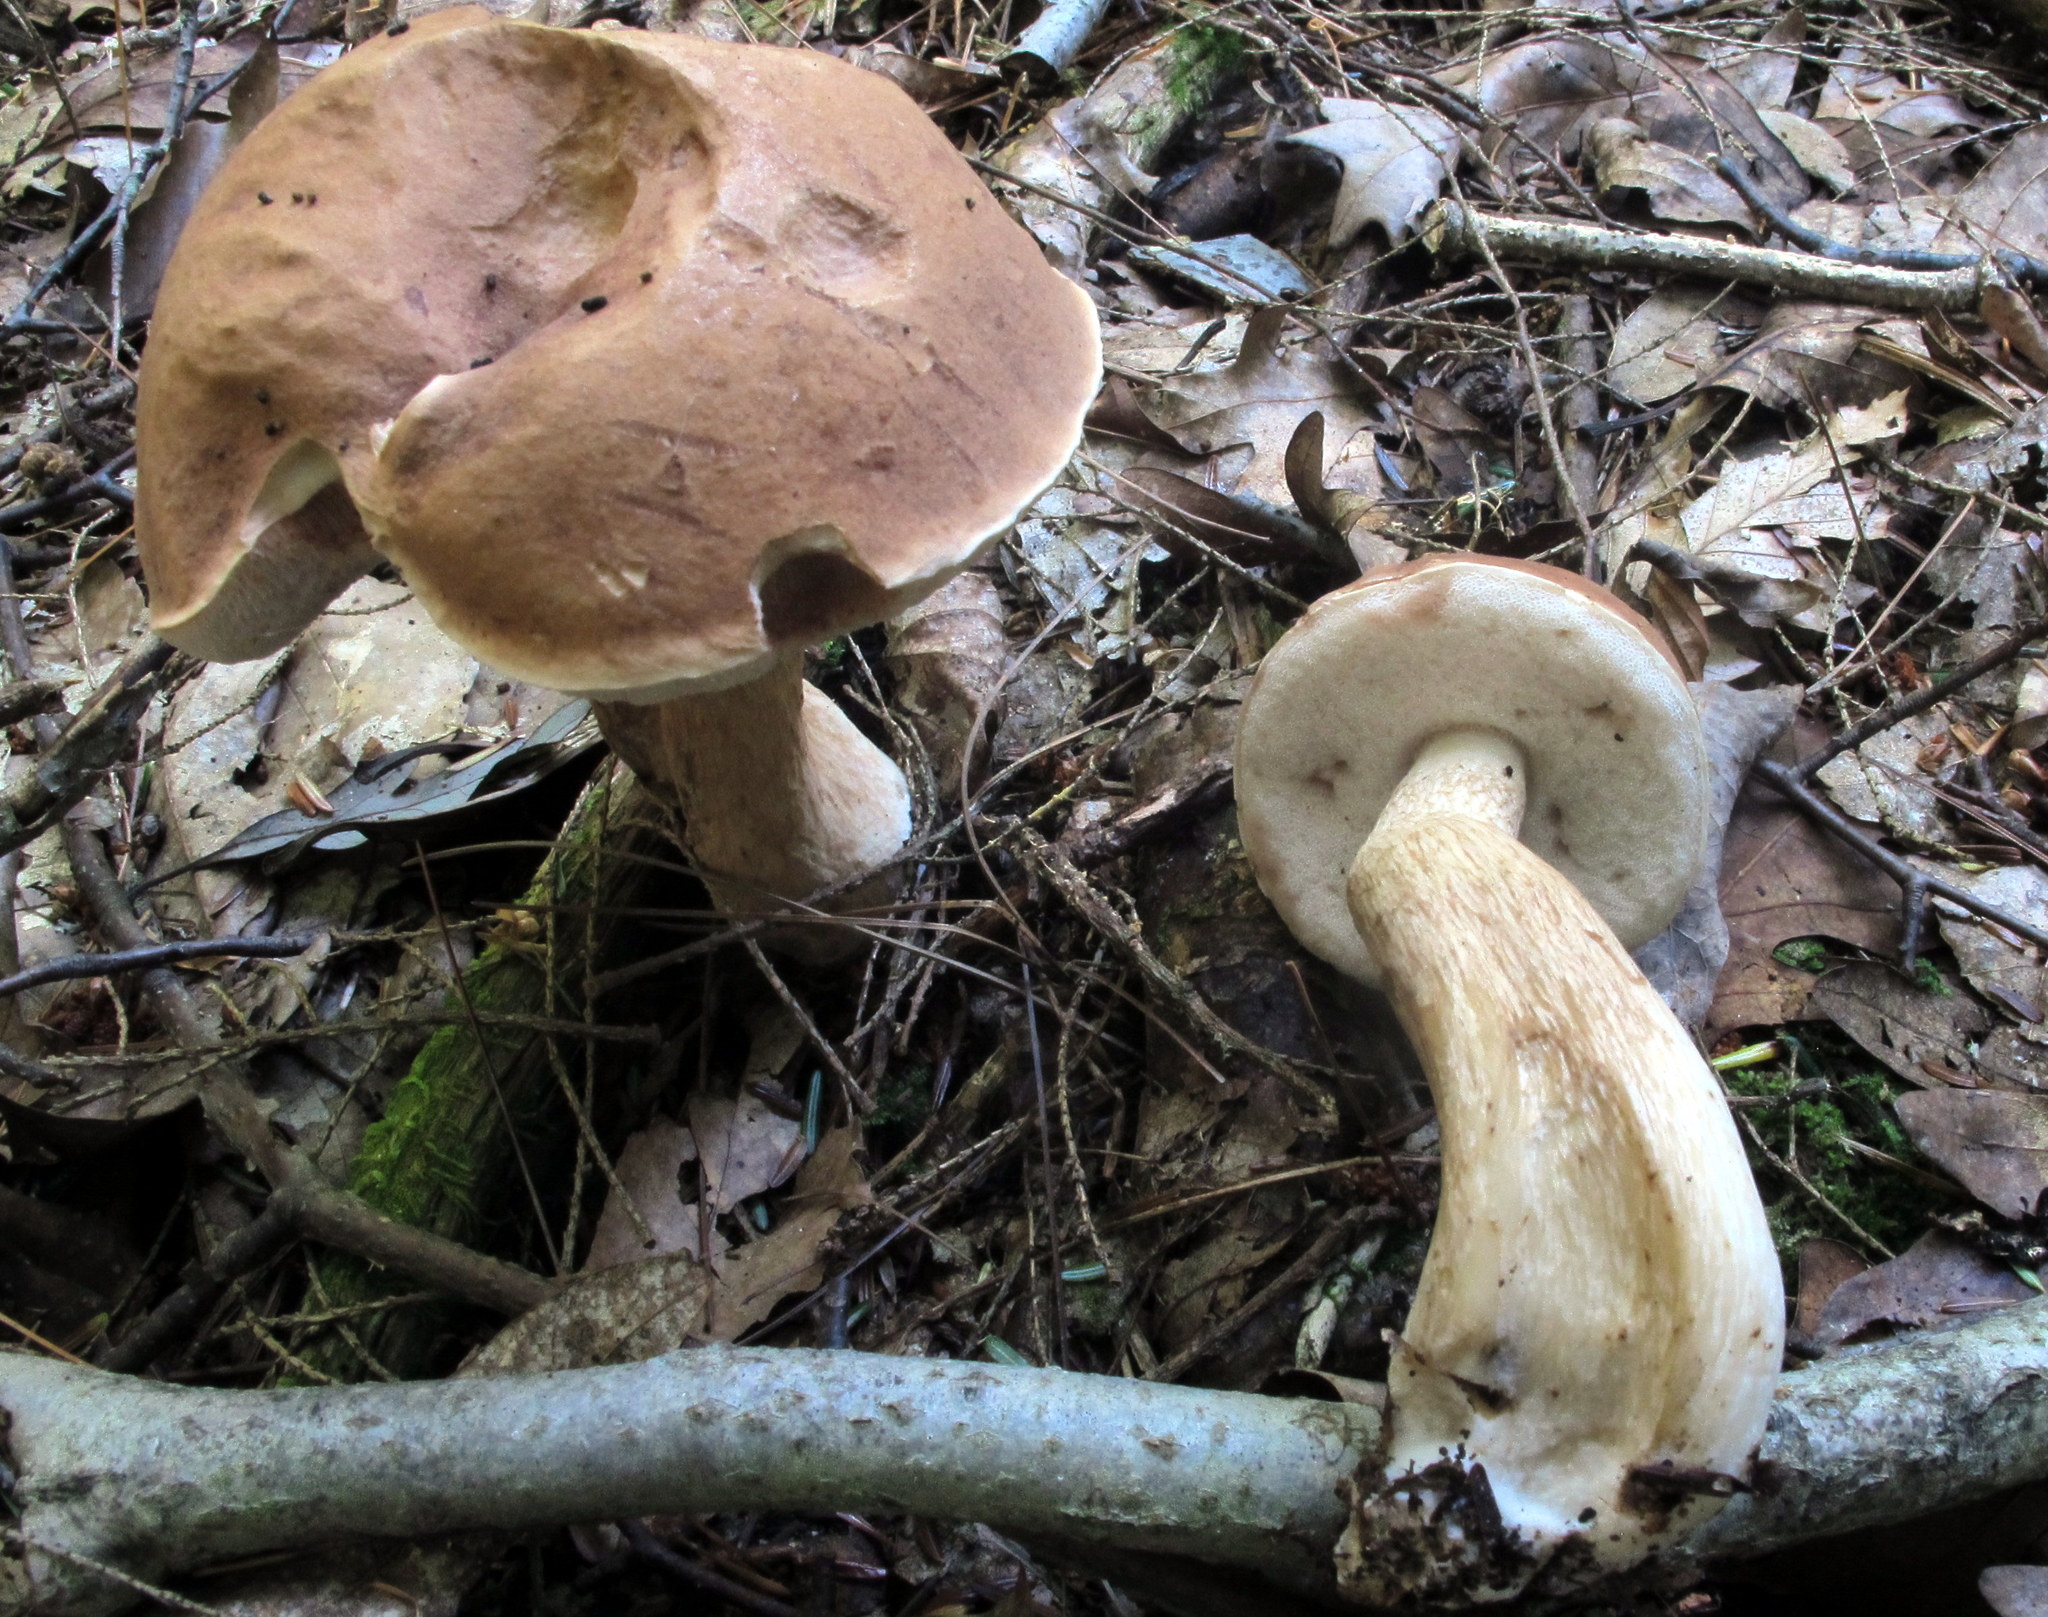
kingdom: Fungi
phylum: Basidiomycota
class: Agaricomycetes
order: Boletales
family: Boletaceae
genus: Tylopilus
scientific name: Tylopilus felleus
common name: Bitter bolete
